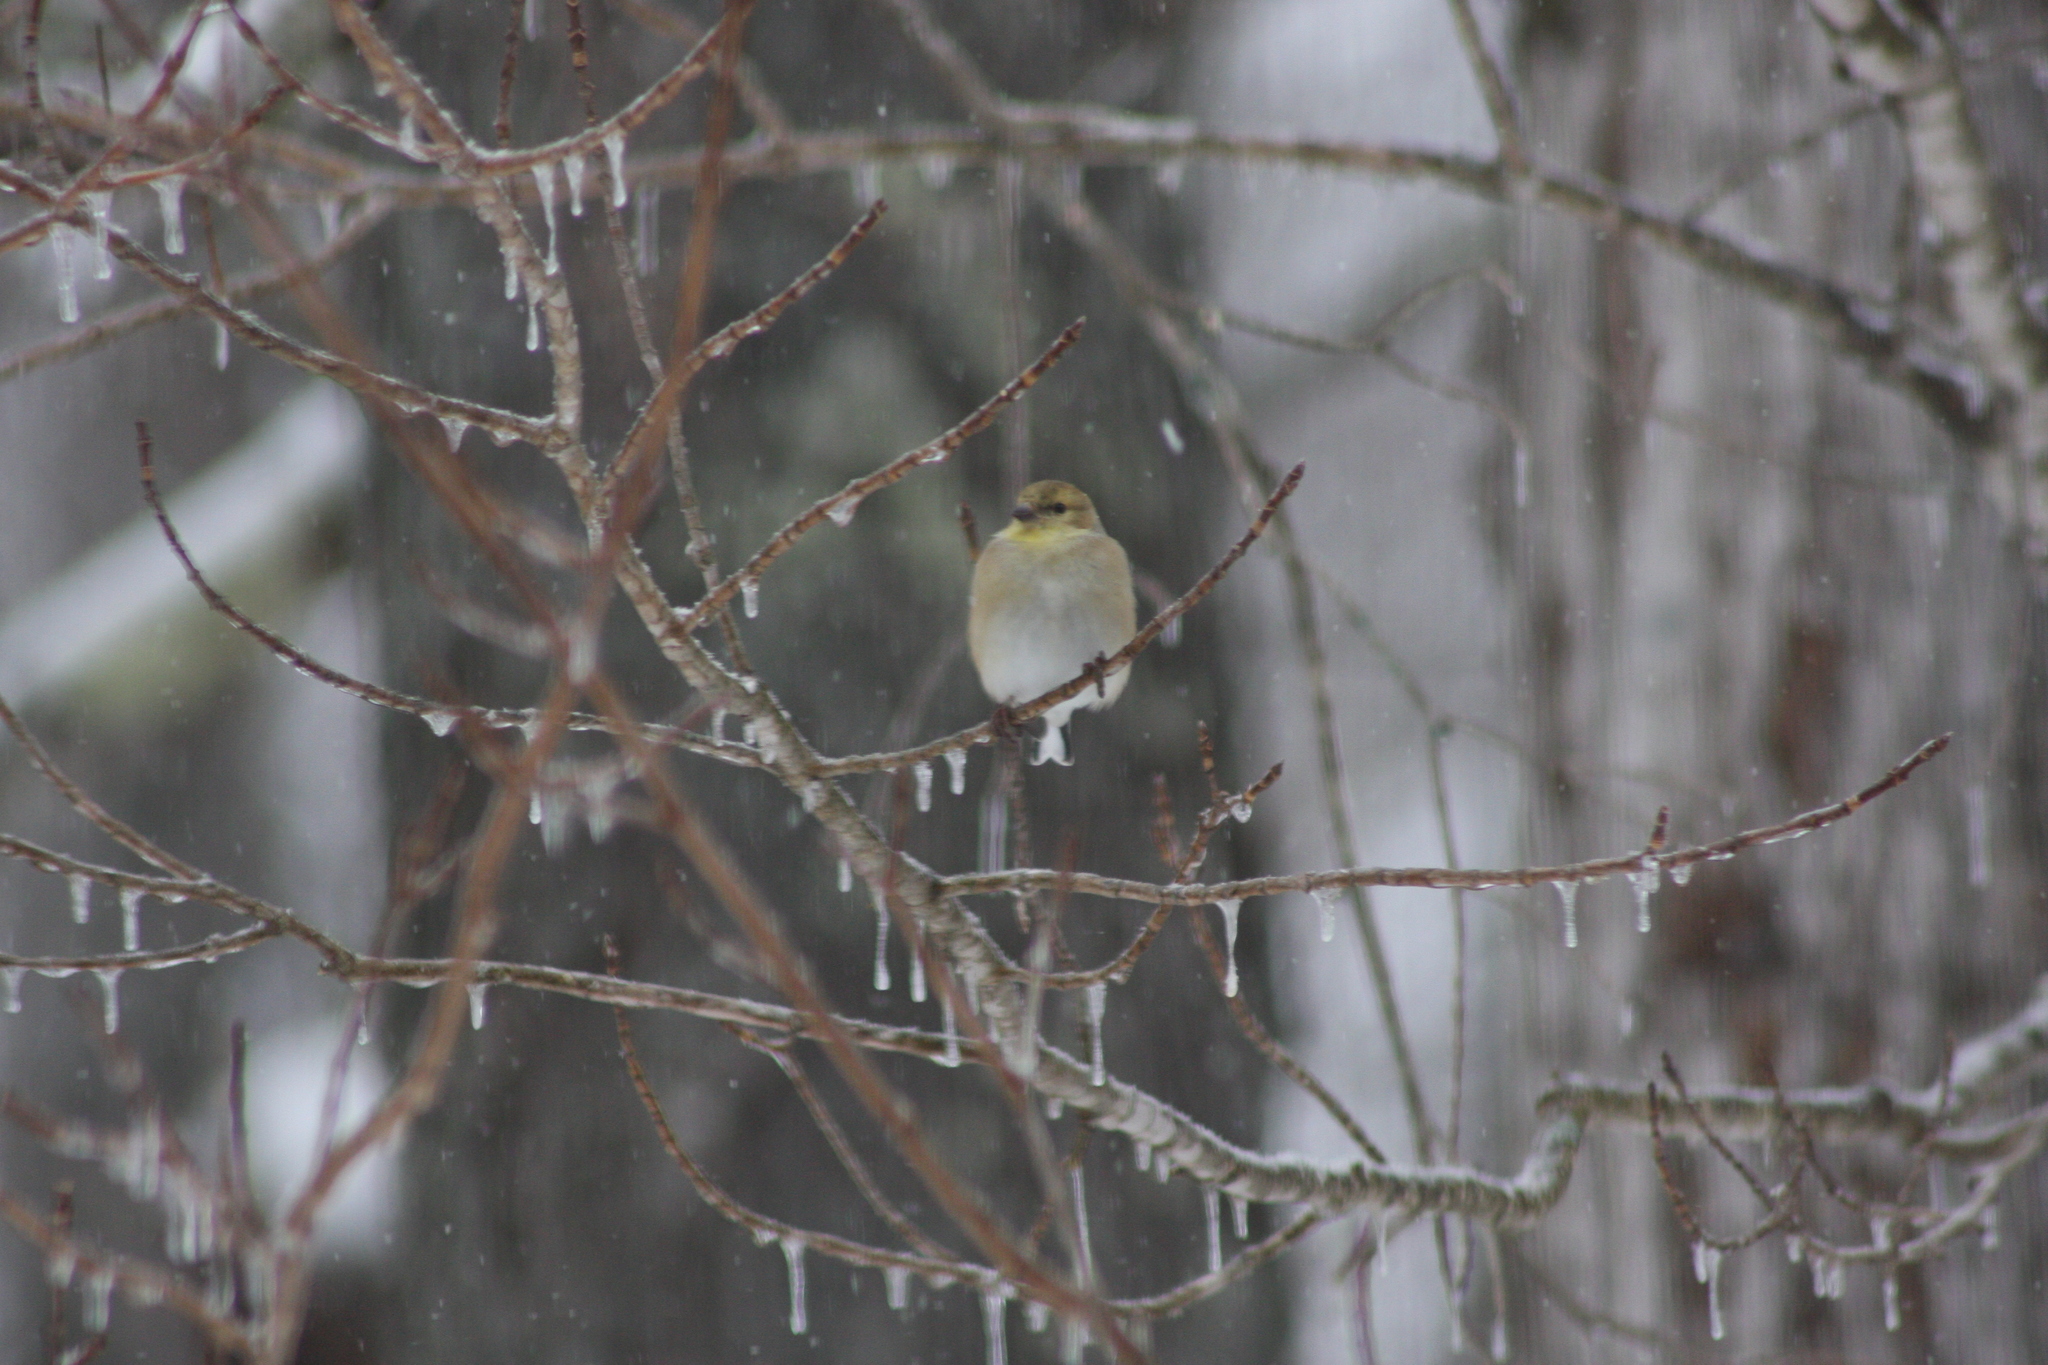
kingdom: Animalia
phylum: Chordata
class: Aves
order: Passeriformes
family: Fringillidae
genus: Spinus
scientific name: Spinus tristis
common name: American goldfinch
